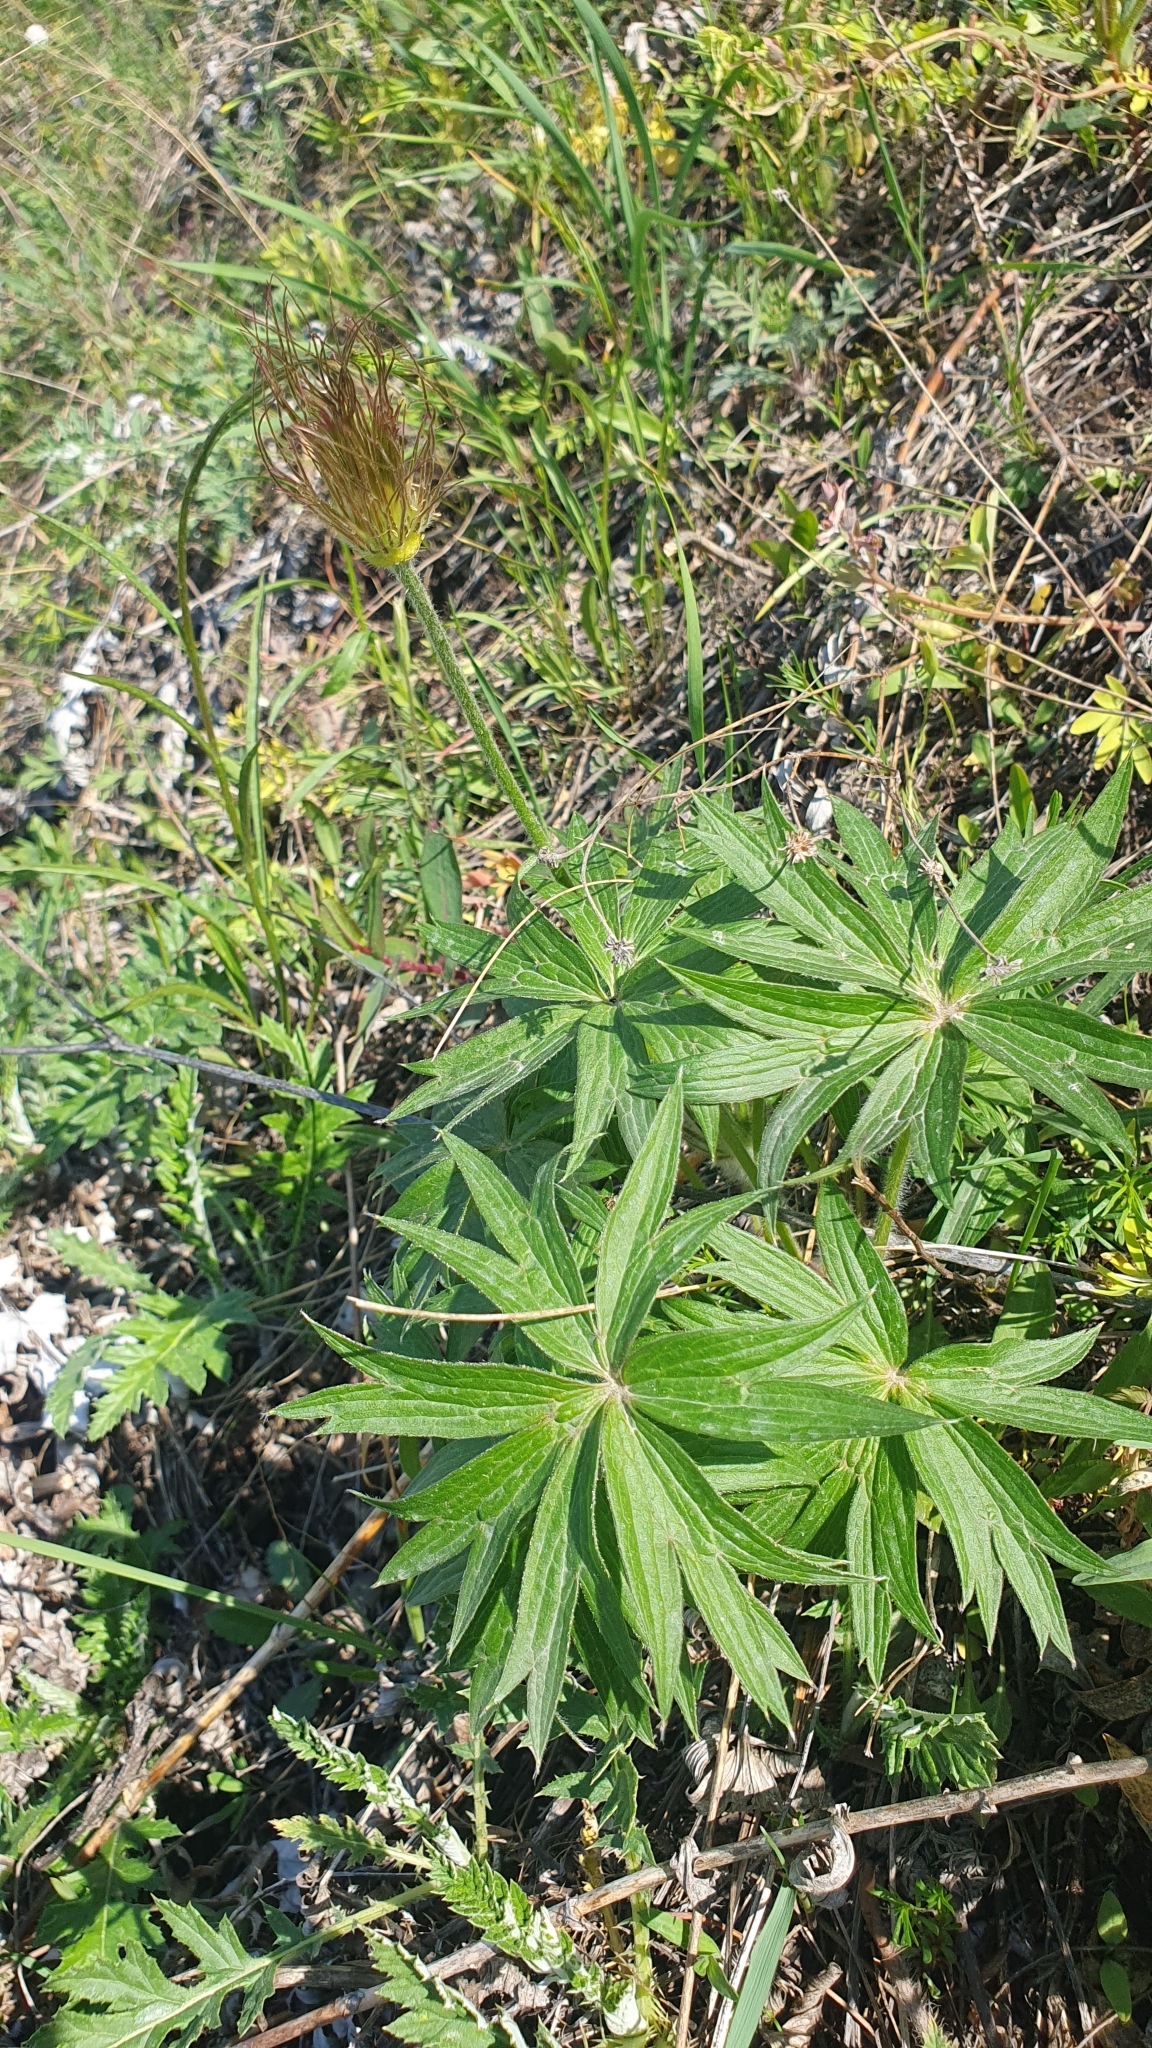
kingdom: Plantae
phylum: Tracheophyta
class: Magnoliopsida
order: Ranunculales
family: Ranunculaceae
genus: Pulsatilla
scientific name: Pulsatilla patens
